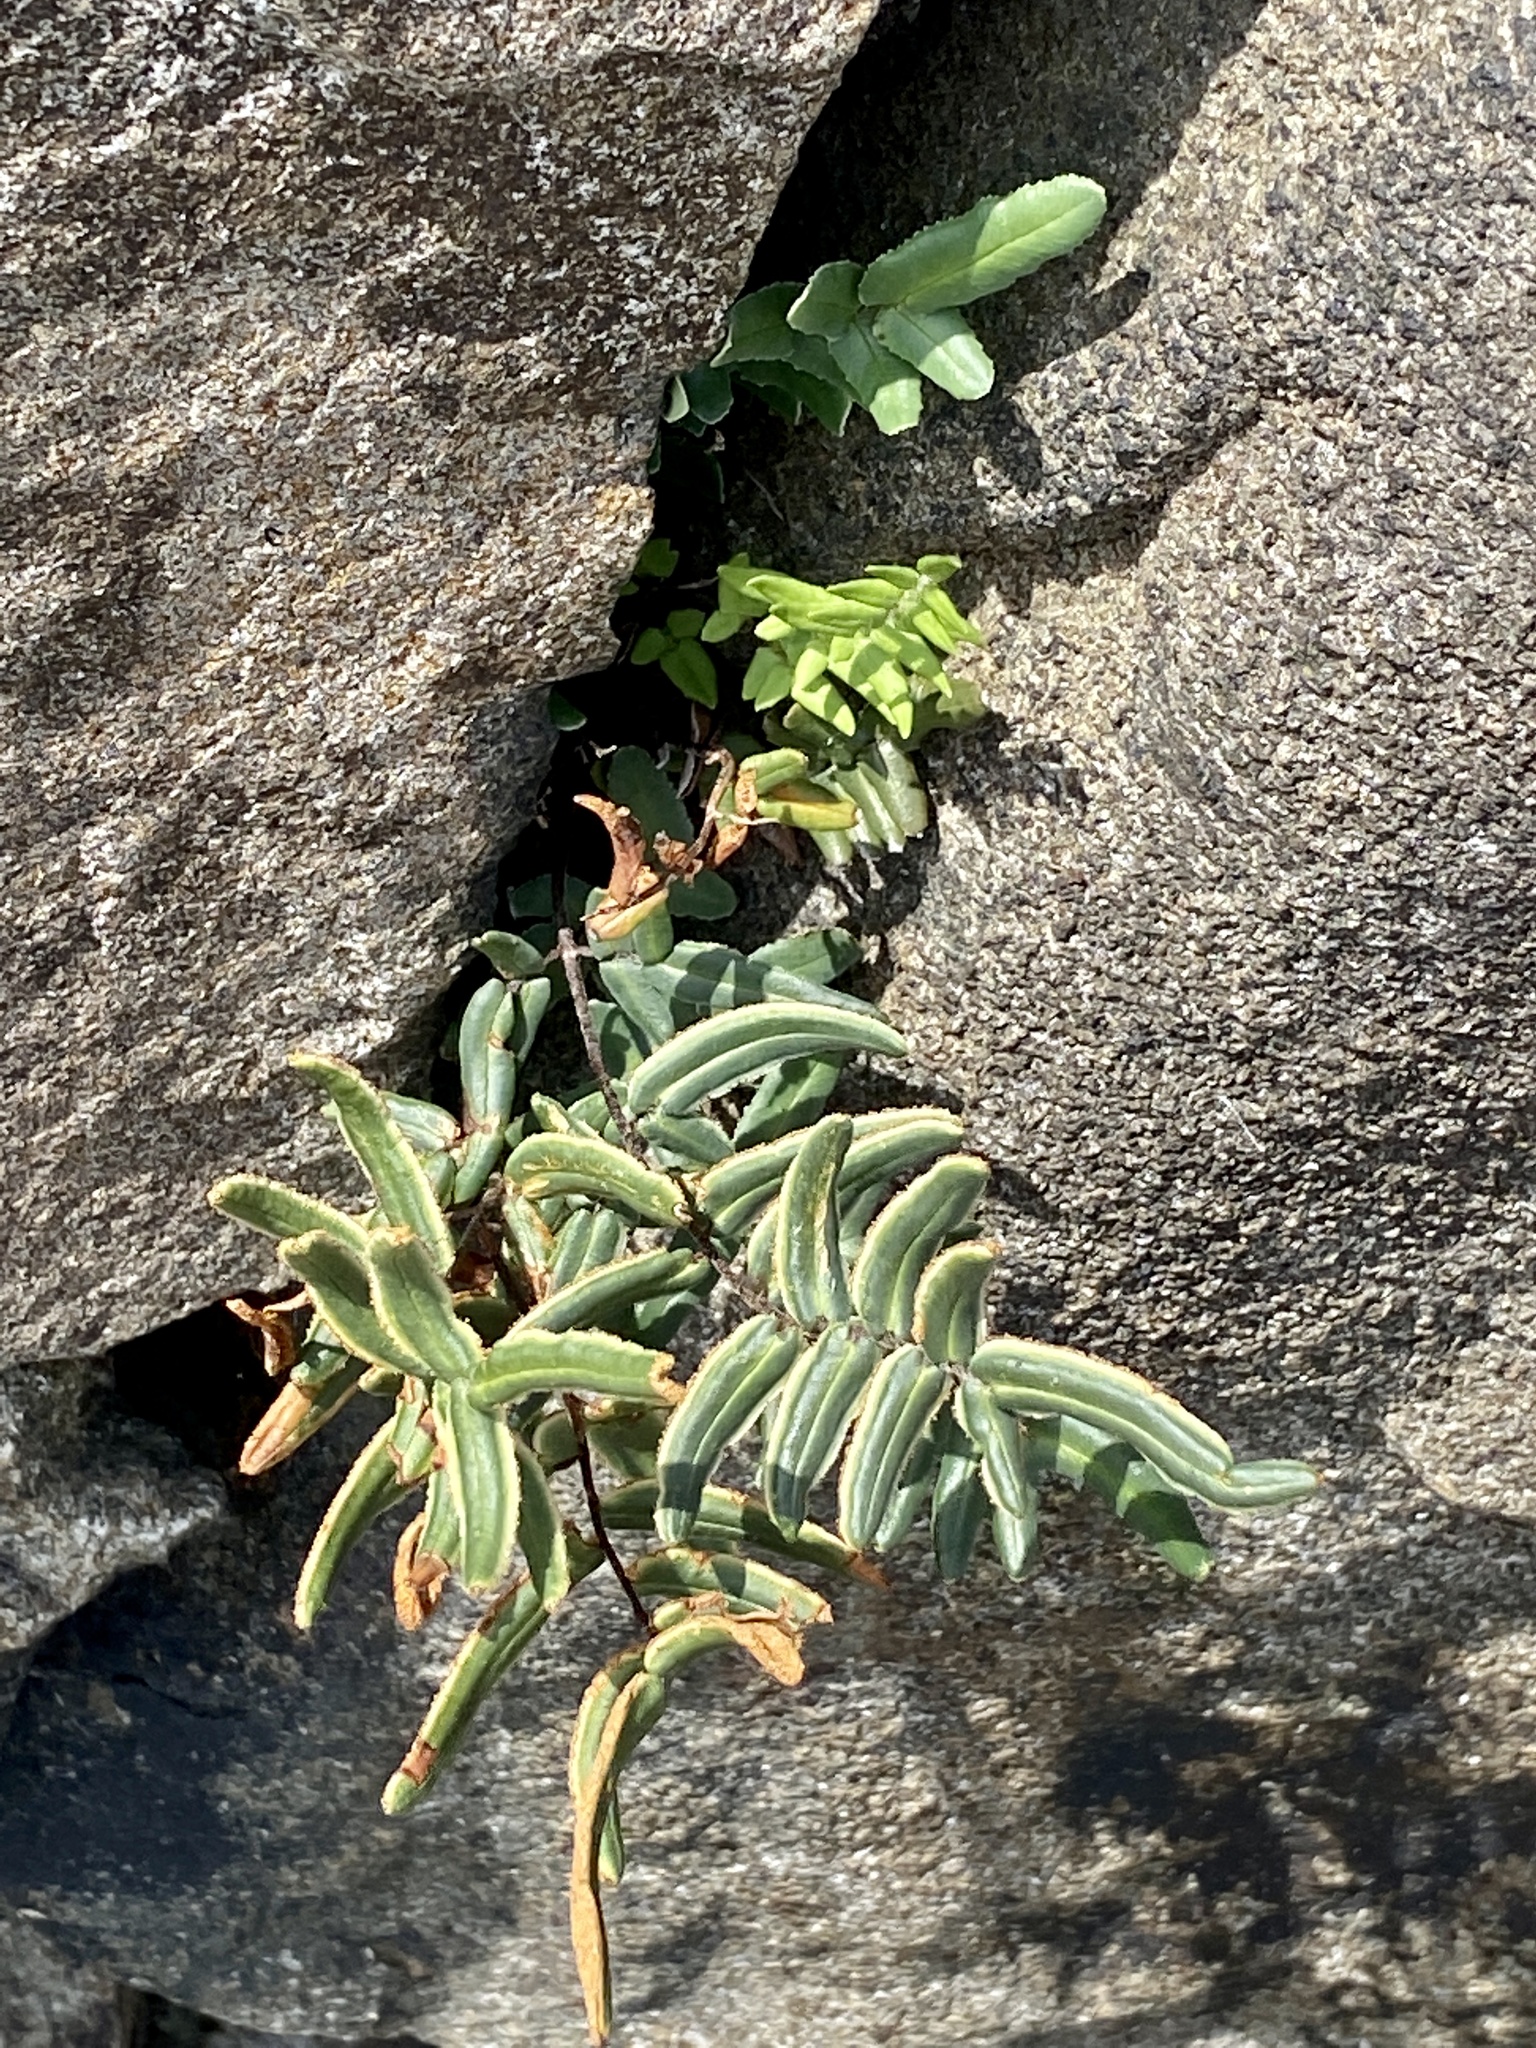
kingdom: Plantae
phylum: Tracheophyta
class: Polypodiopsida
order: Polypodiales
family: Pteridaceae
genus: Pellaea
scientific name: Pellaea atropurpurea
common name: Hairy cliffbrake
